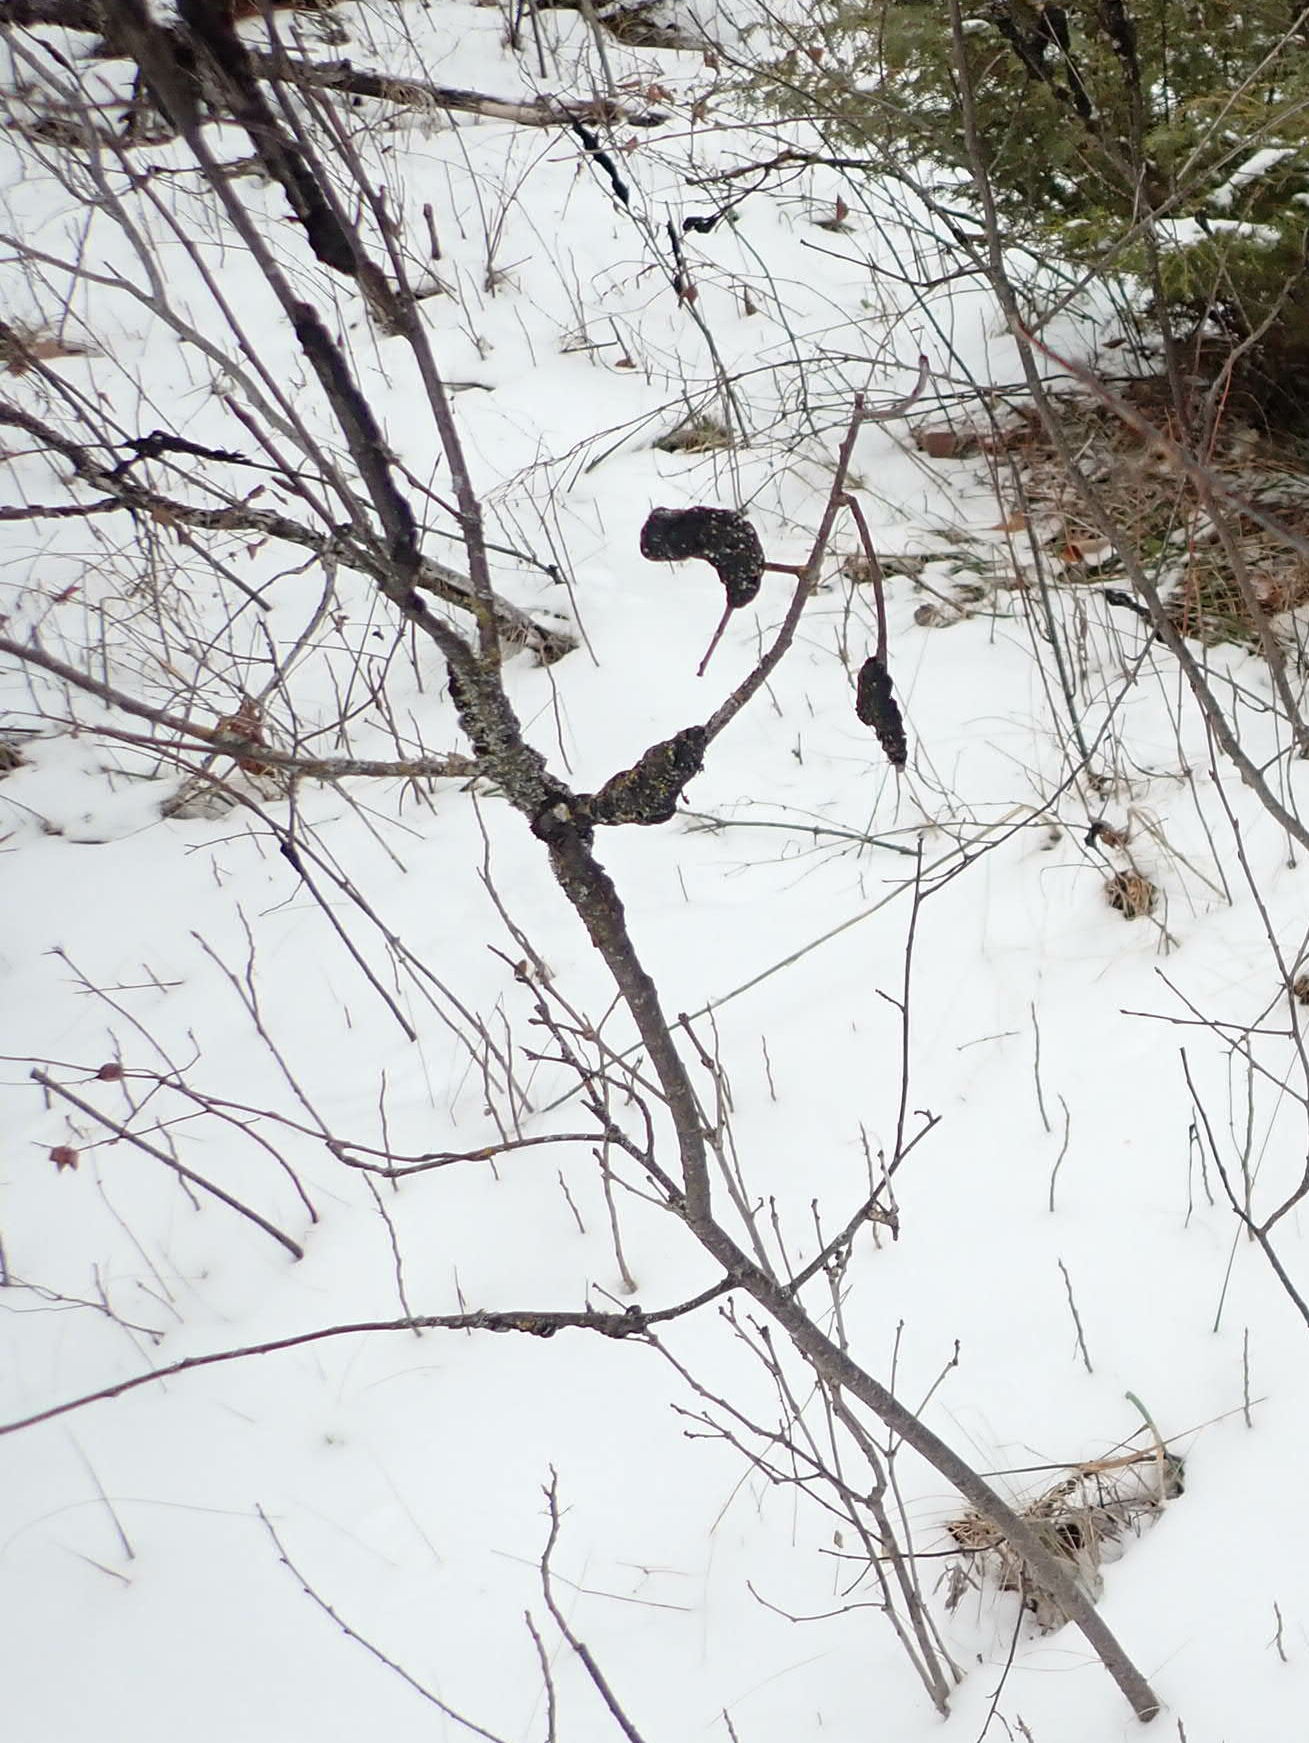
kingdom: Fungi
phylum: Ascomycota
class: Dothideomycetes
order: Venturiales
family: Venturiaceae
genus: Apiosporina
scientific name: Apiosporina morbosa
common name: Black knot
